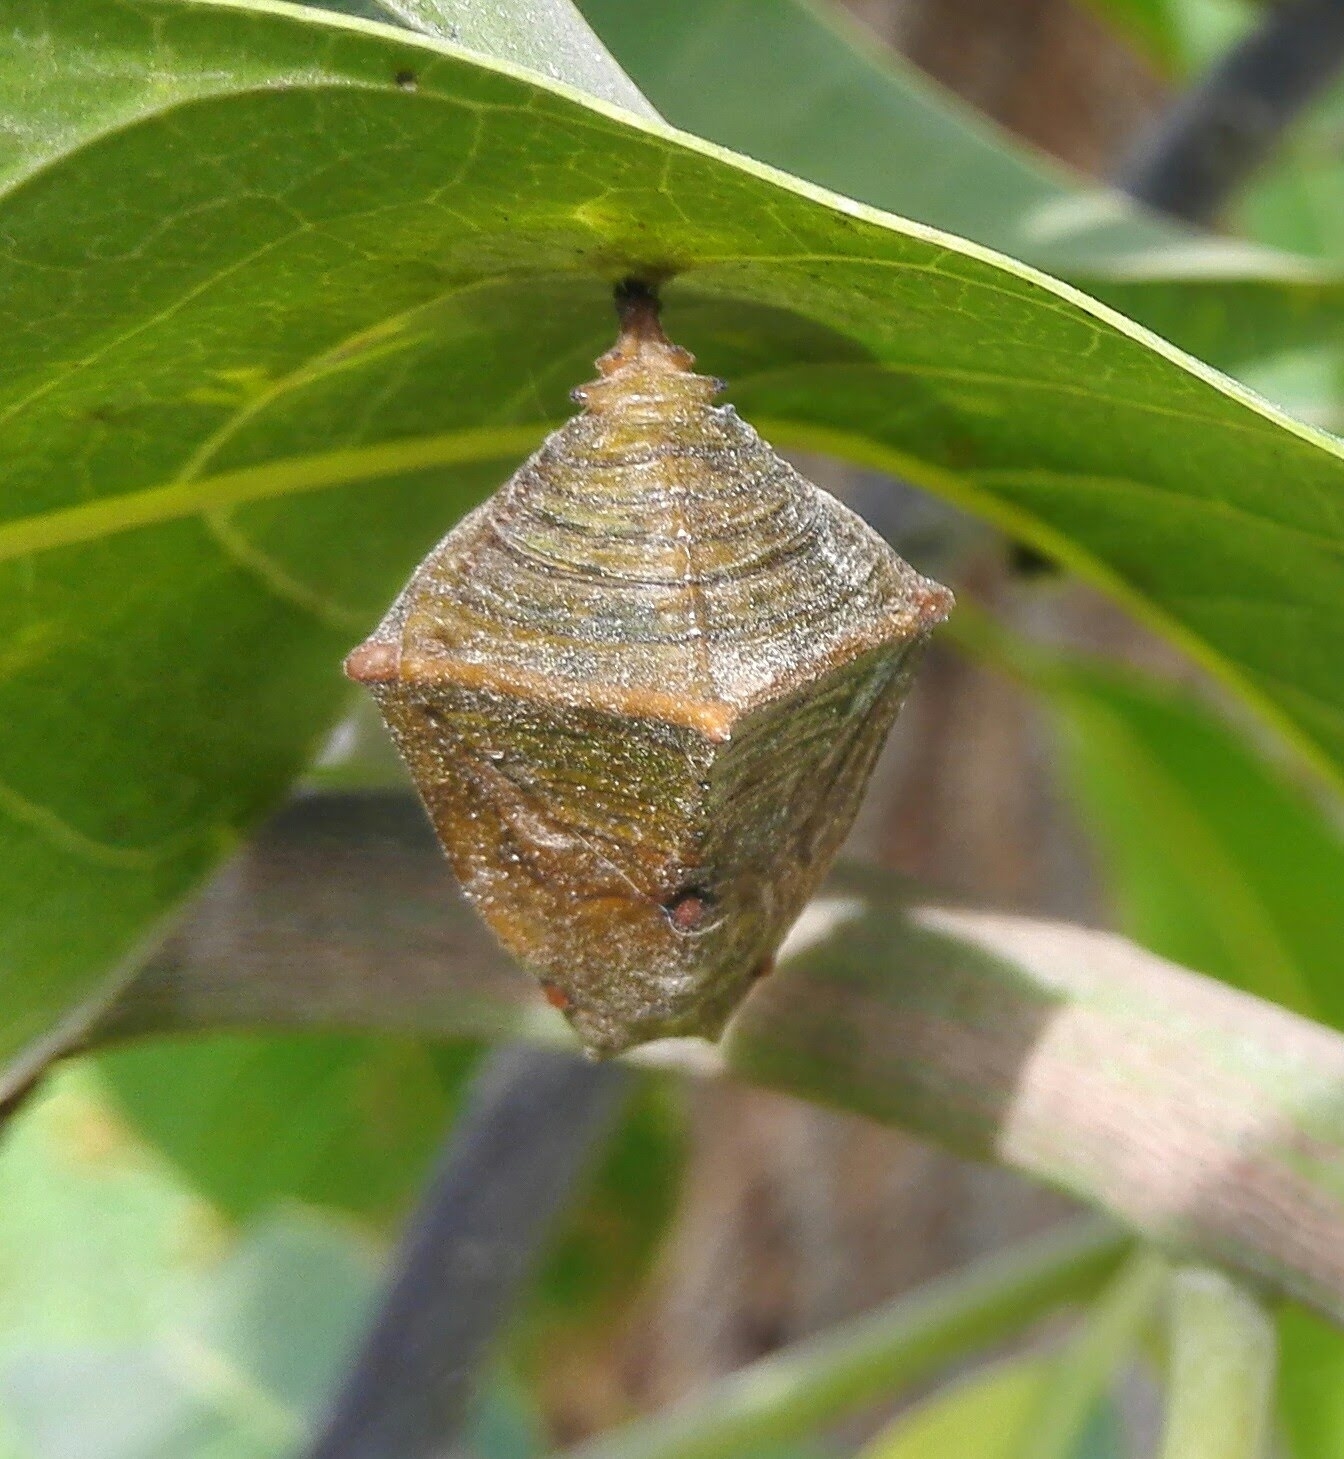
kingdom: Animalia
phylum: Arthropoda
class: Insecta
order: Lepidoptera
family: Nymphalidae
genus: Euthalia
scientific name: Euthalia aconthea
